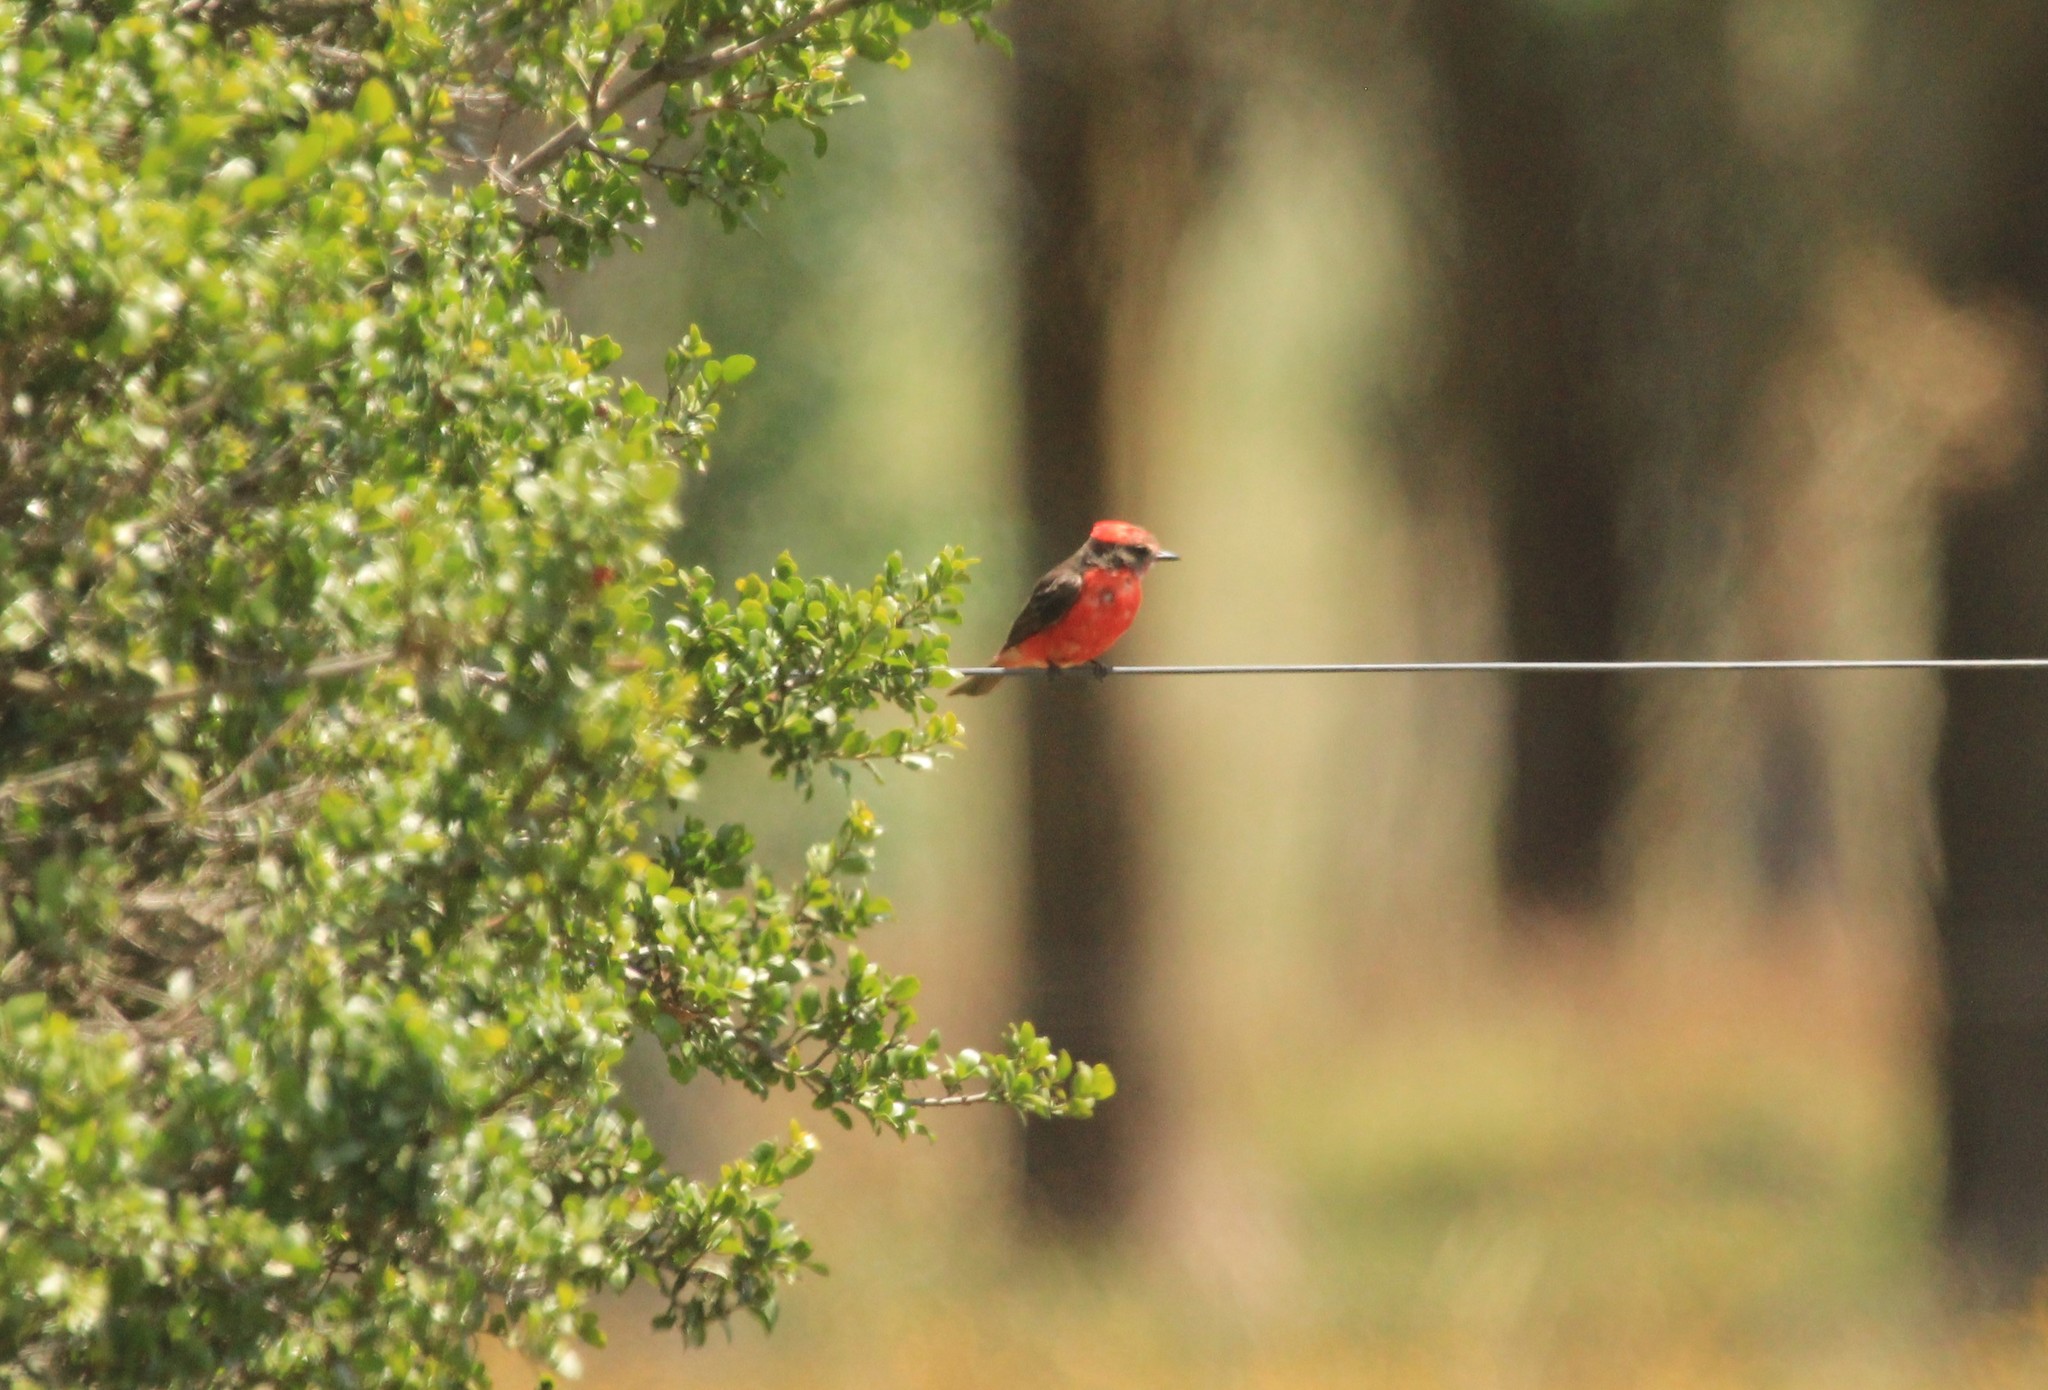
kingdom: Animalia
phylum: Chordata
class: Aves
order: Passeriformes
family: Tyrannidae
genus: Pyrocephalus
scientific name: Pyrocephalus rubinus
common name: Vermilion flycatcher
